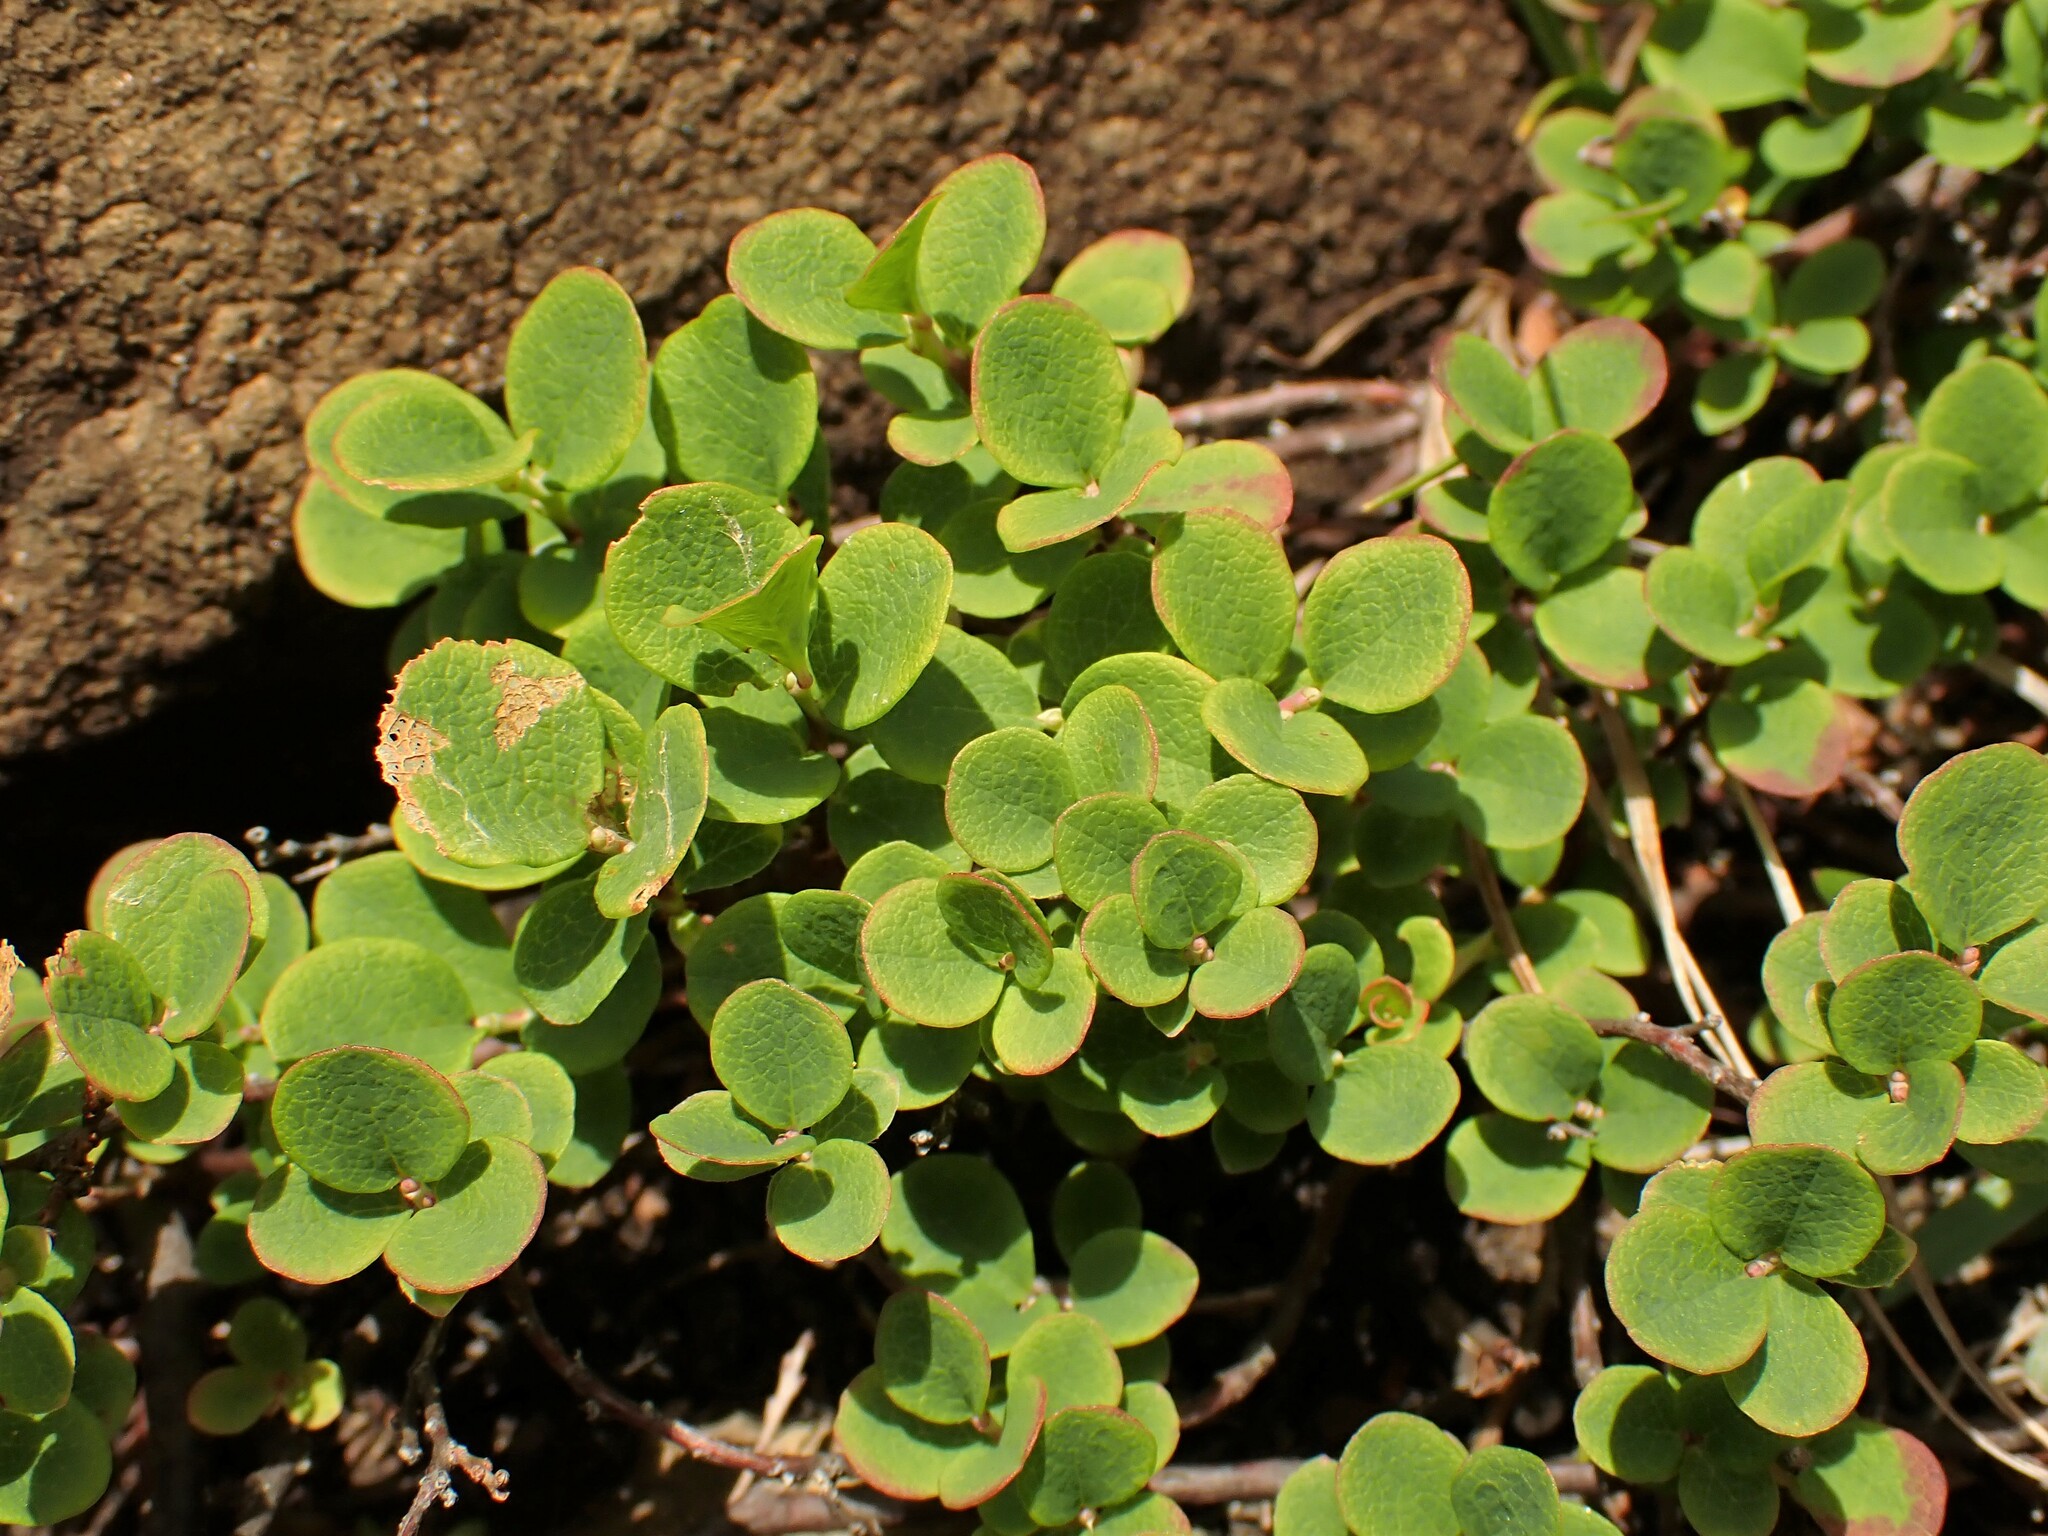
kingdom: Plantae
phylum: Tracheophyta
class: Magnoliopsida
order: Ericales
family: Ericaceae
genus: Vaccinium
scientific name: Vaccinium uliginosum
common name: Bog bilberry
